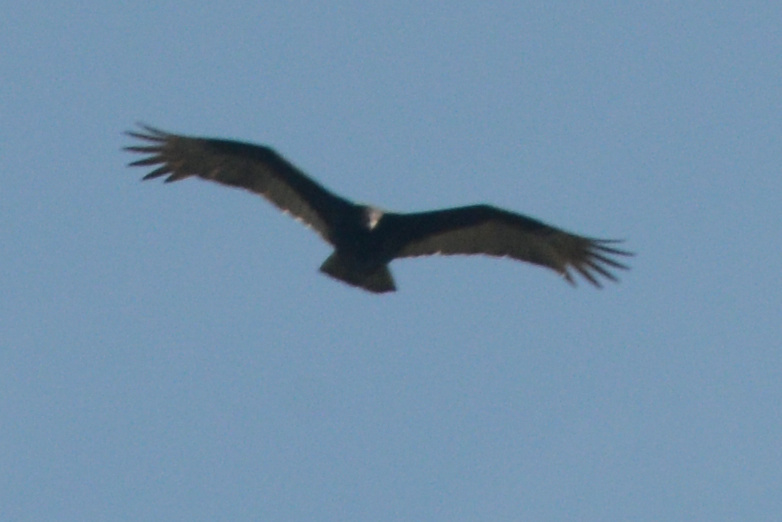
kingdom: Animalia
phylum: Chordata
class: Aves
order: Accipitriformes
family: Cathartidae
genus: Cathartes
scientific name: Cathartes aura
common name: Turkey vulture
